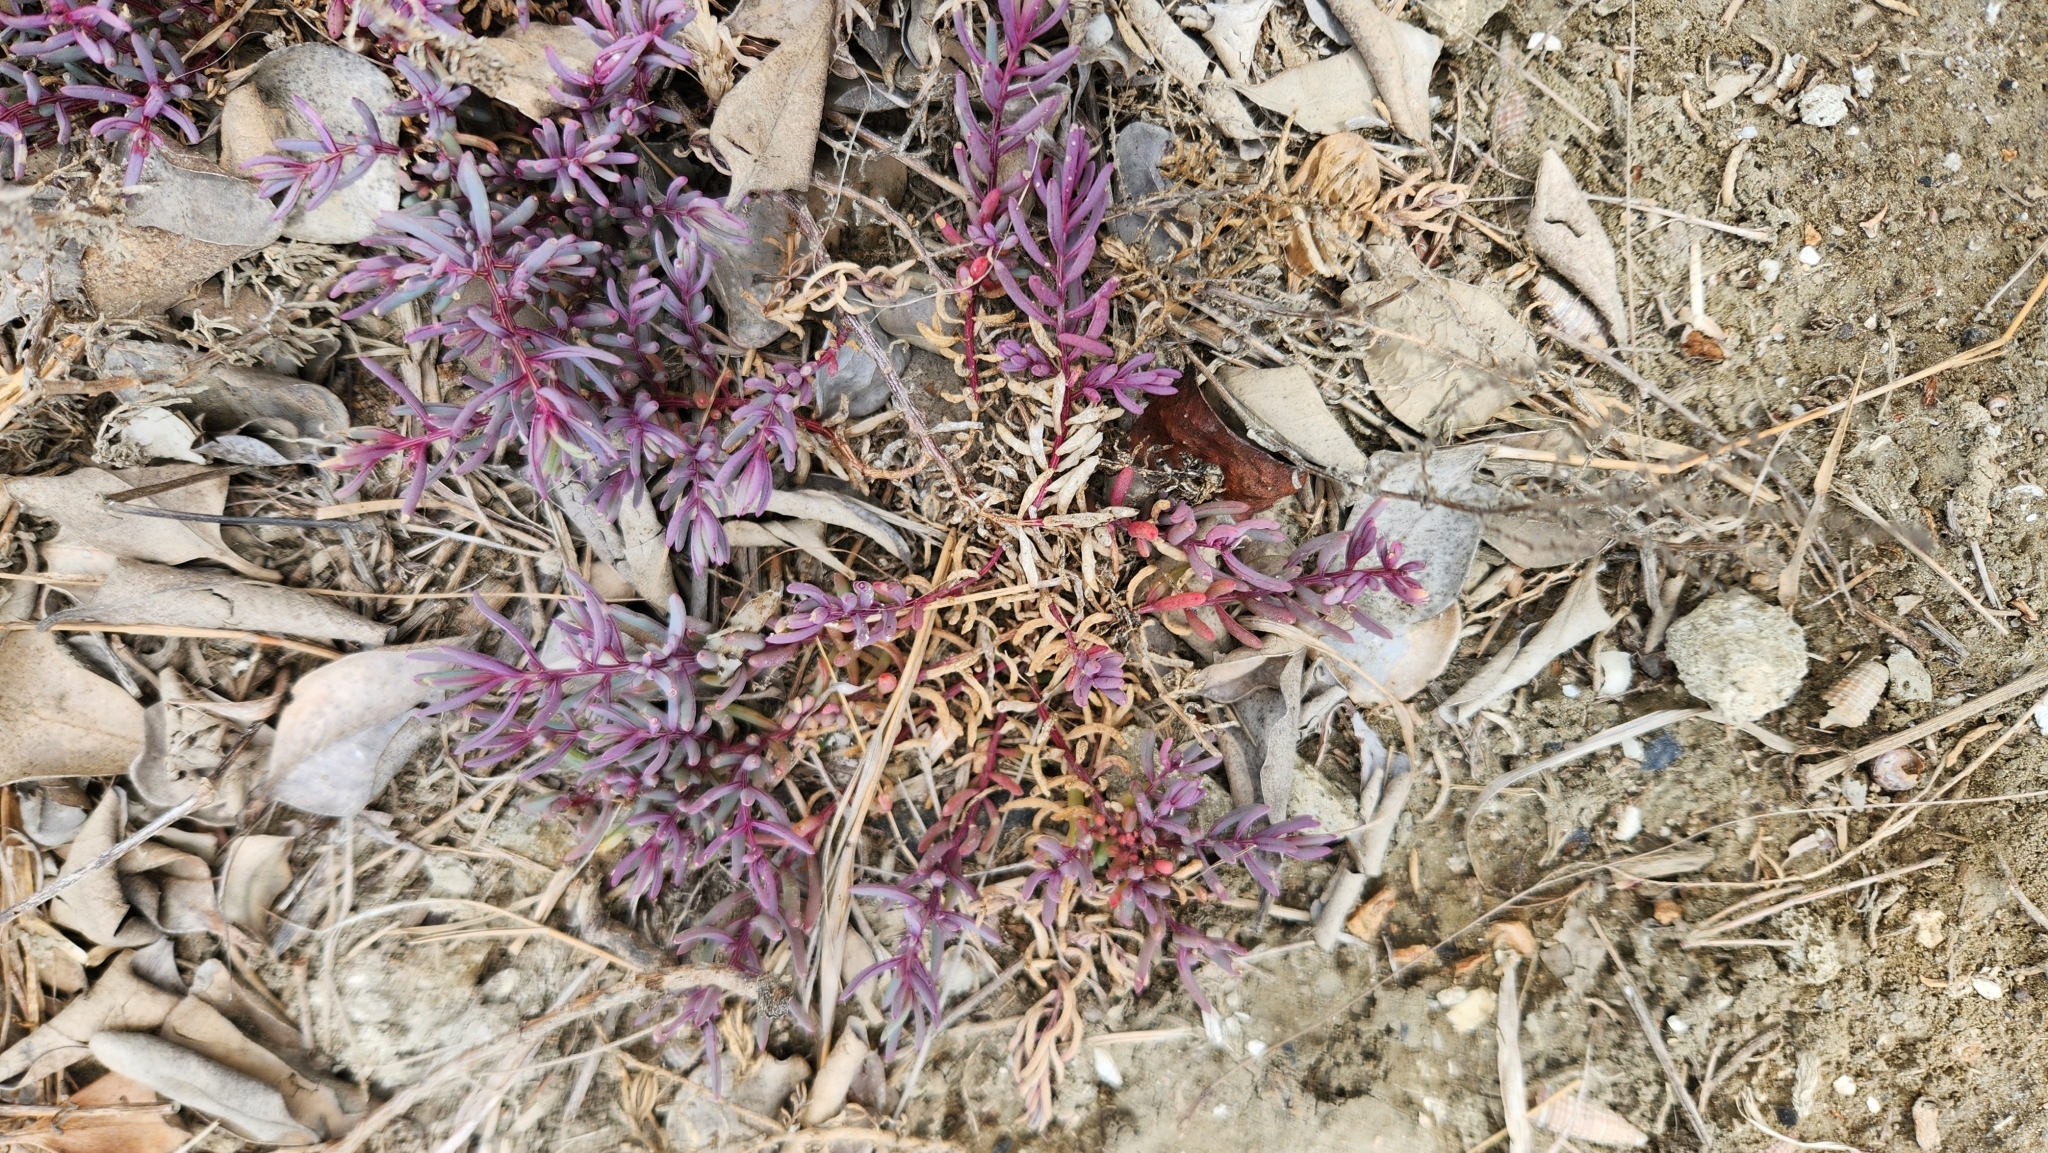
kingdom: Plantae
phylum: Tracheophyta
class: Magnoliopsida
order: Caryophyllales
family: Amaranthaceae
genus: Suaeda
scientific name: Suaeda maritima
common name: Annual sea-blite
